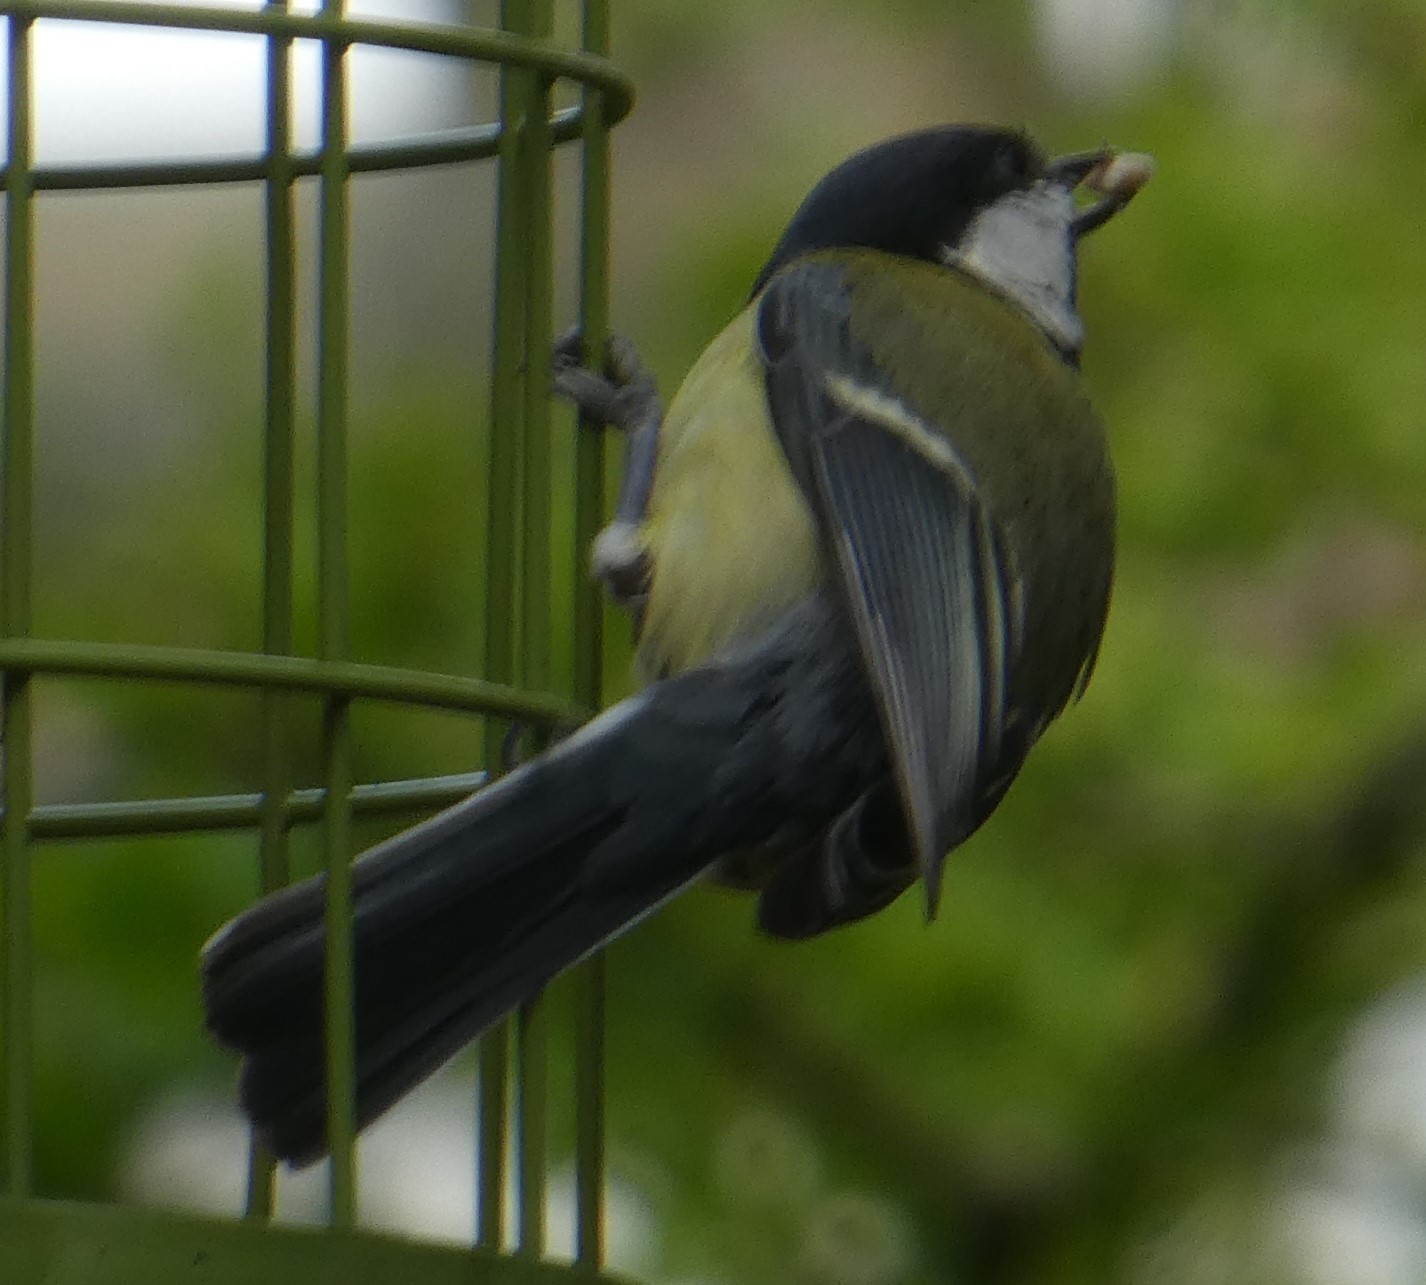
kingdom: Animalia
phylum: Chordata
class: Aves
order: Passeriformes
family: Paridae
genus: Parus
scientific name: Parus major
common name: Great tit
